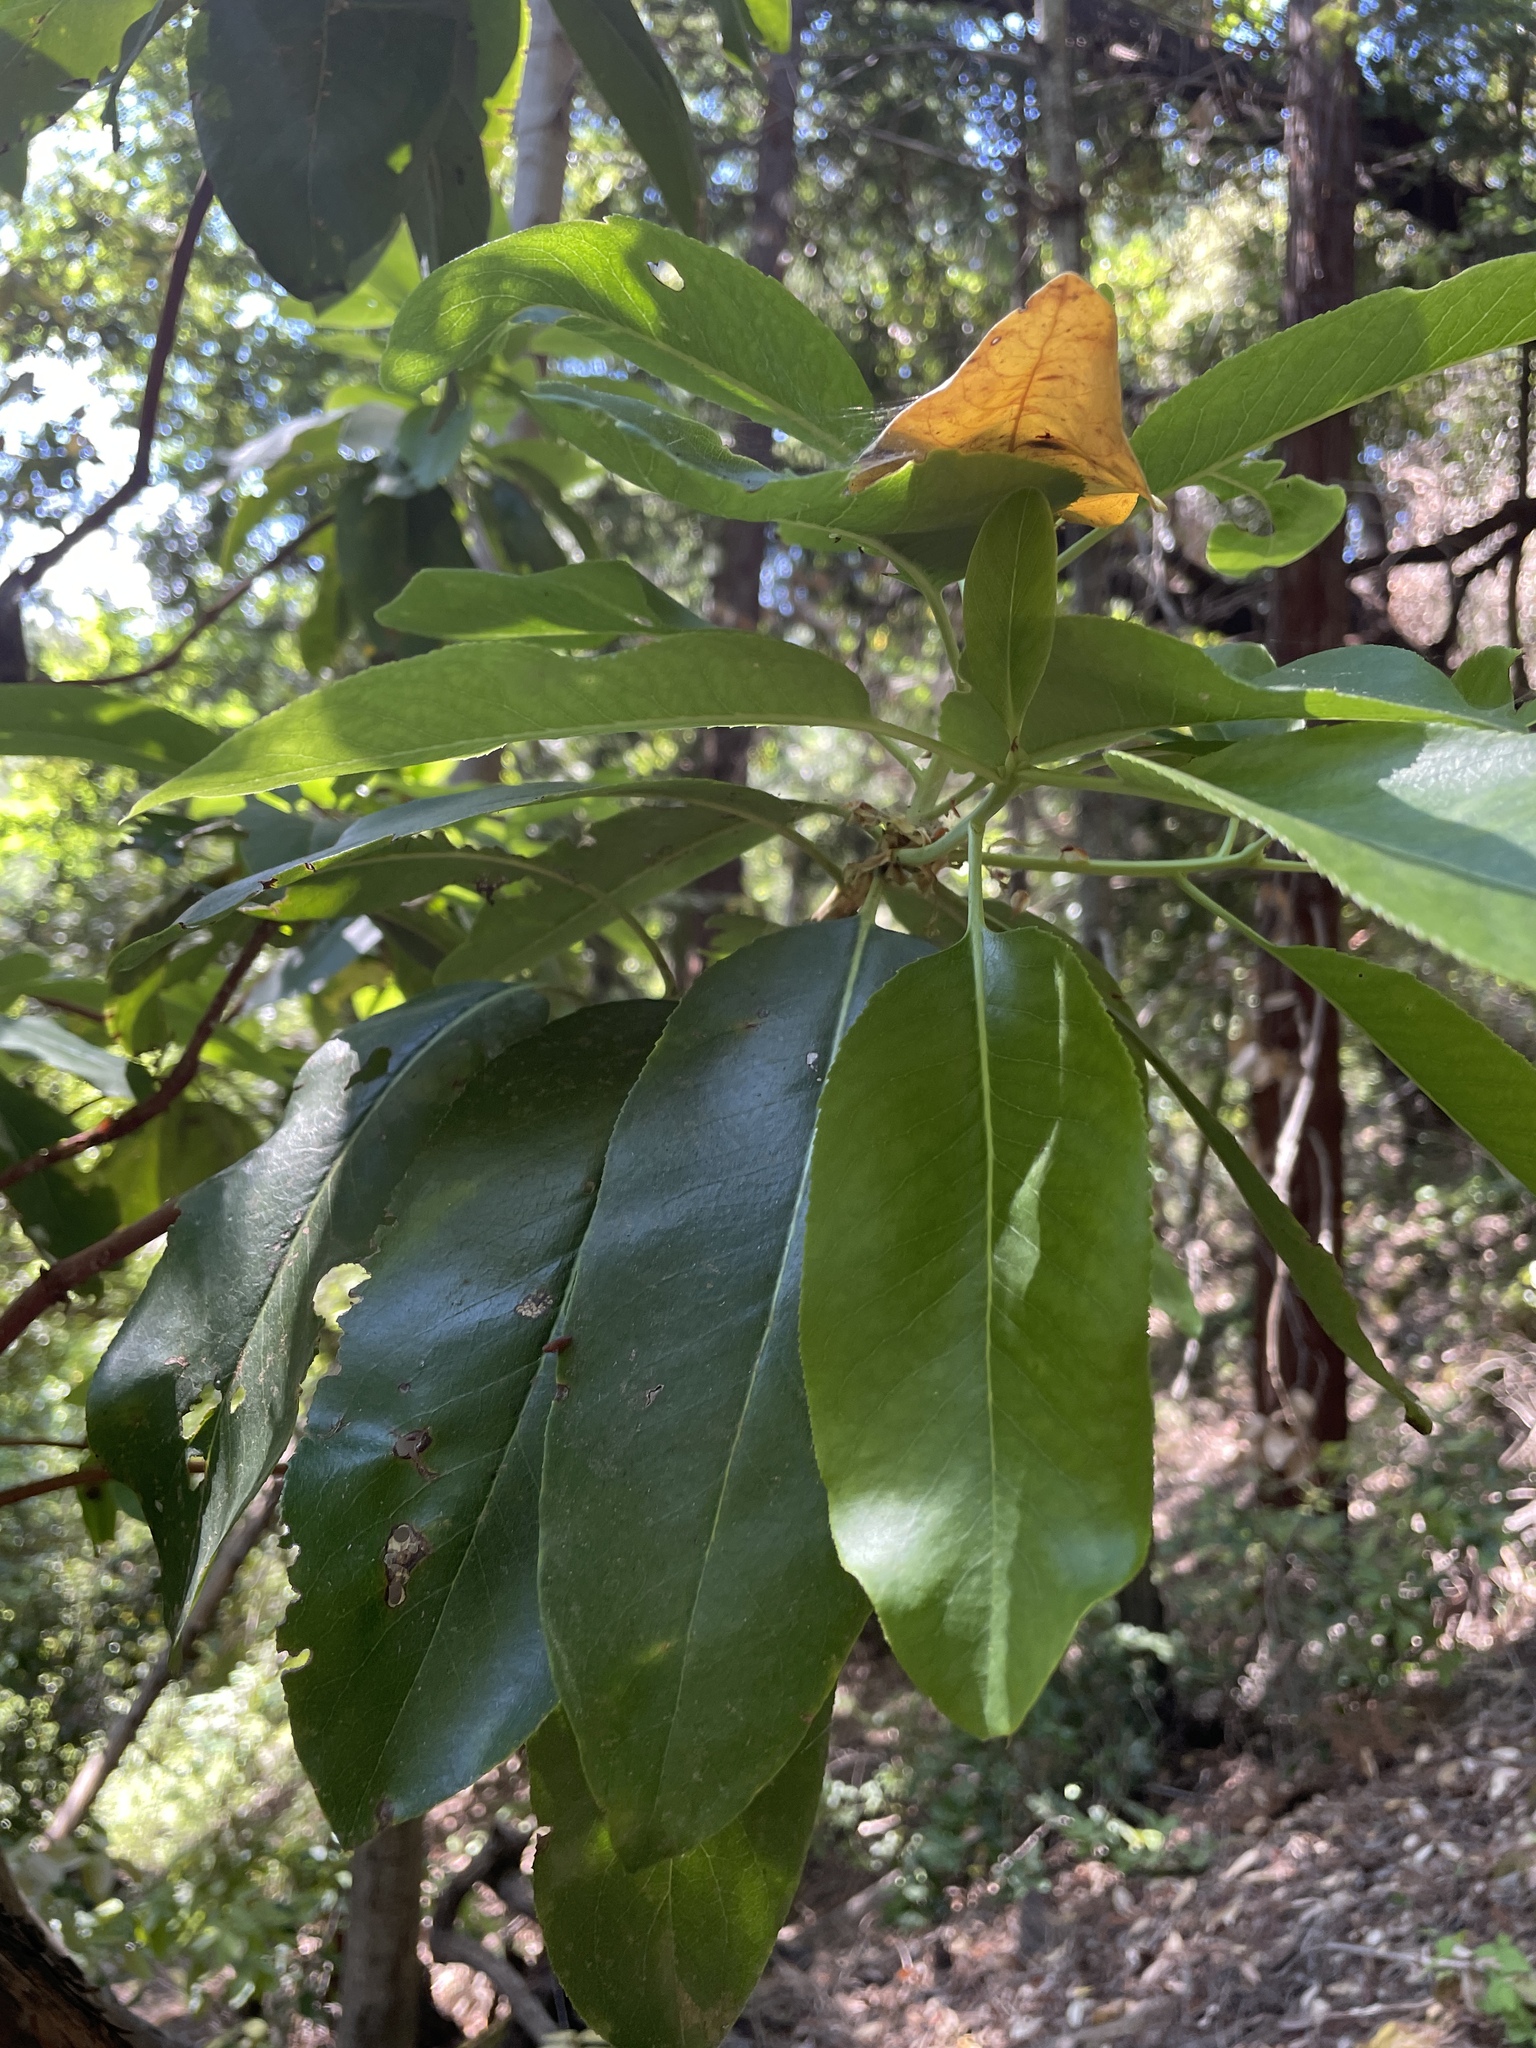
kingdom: Plantae
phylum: Tracheophyta
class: Magnoliopsida
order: Ericales
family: Ericaceae
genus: Arbutus
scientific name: Arbutus menziesii
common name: Pacific madrone
